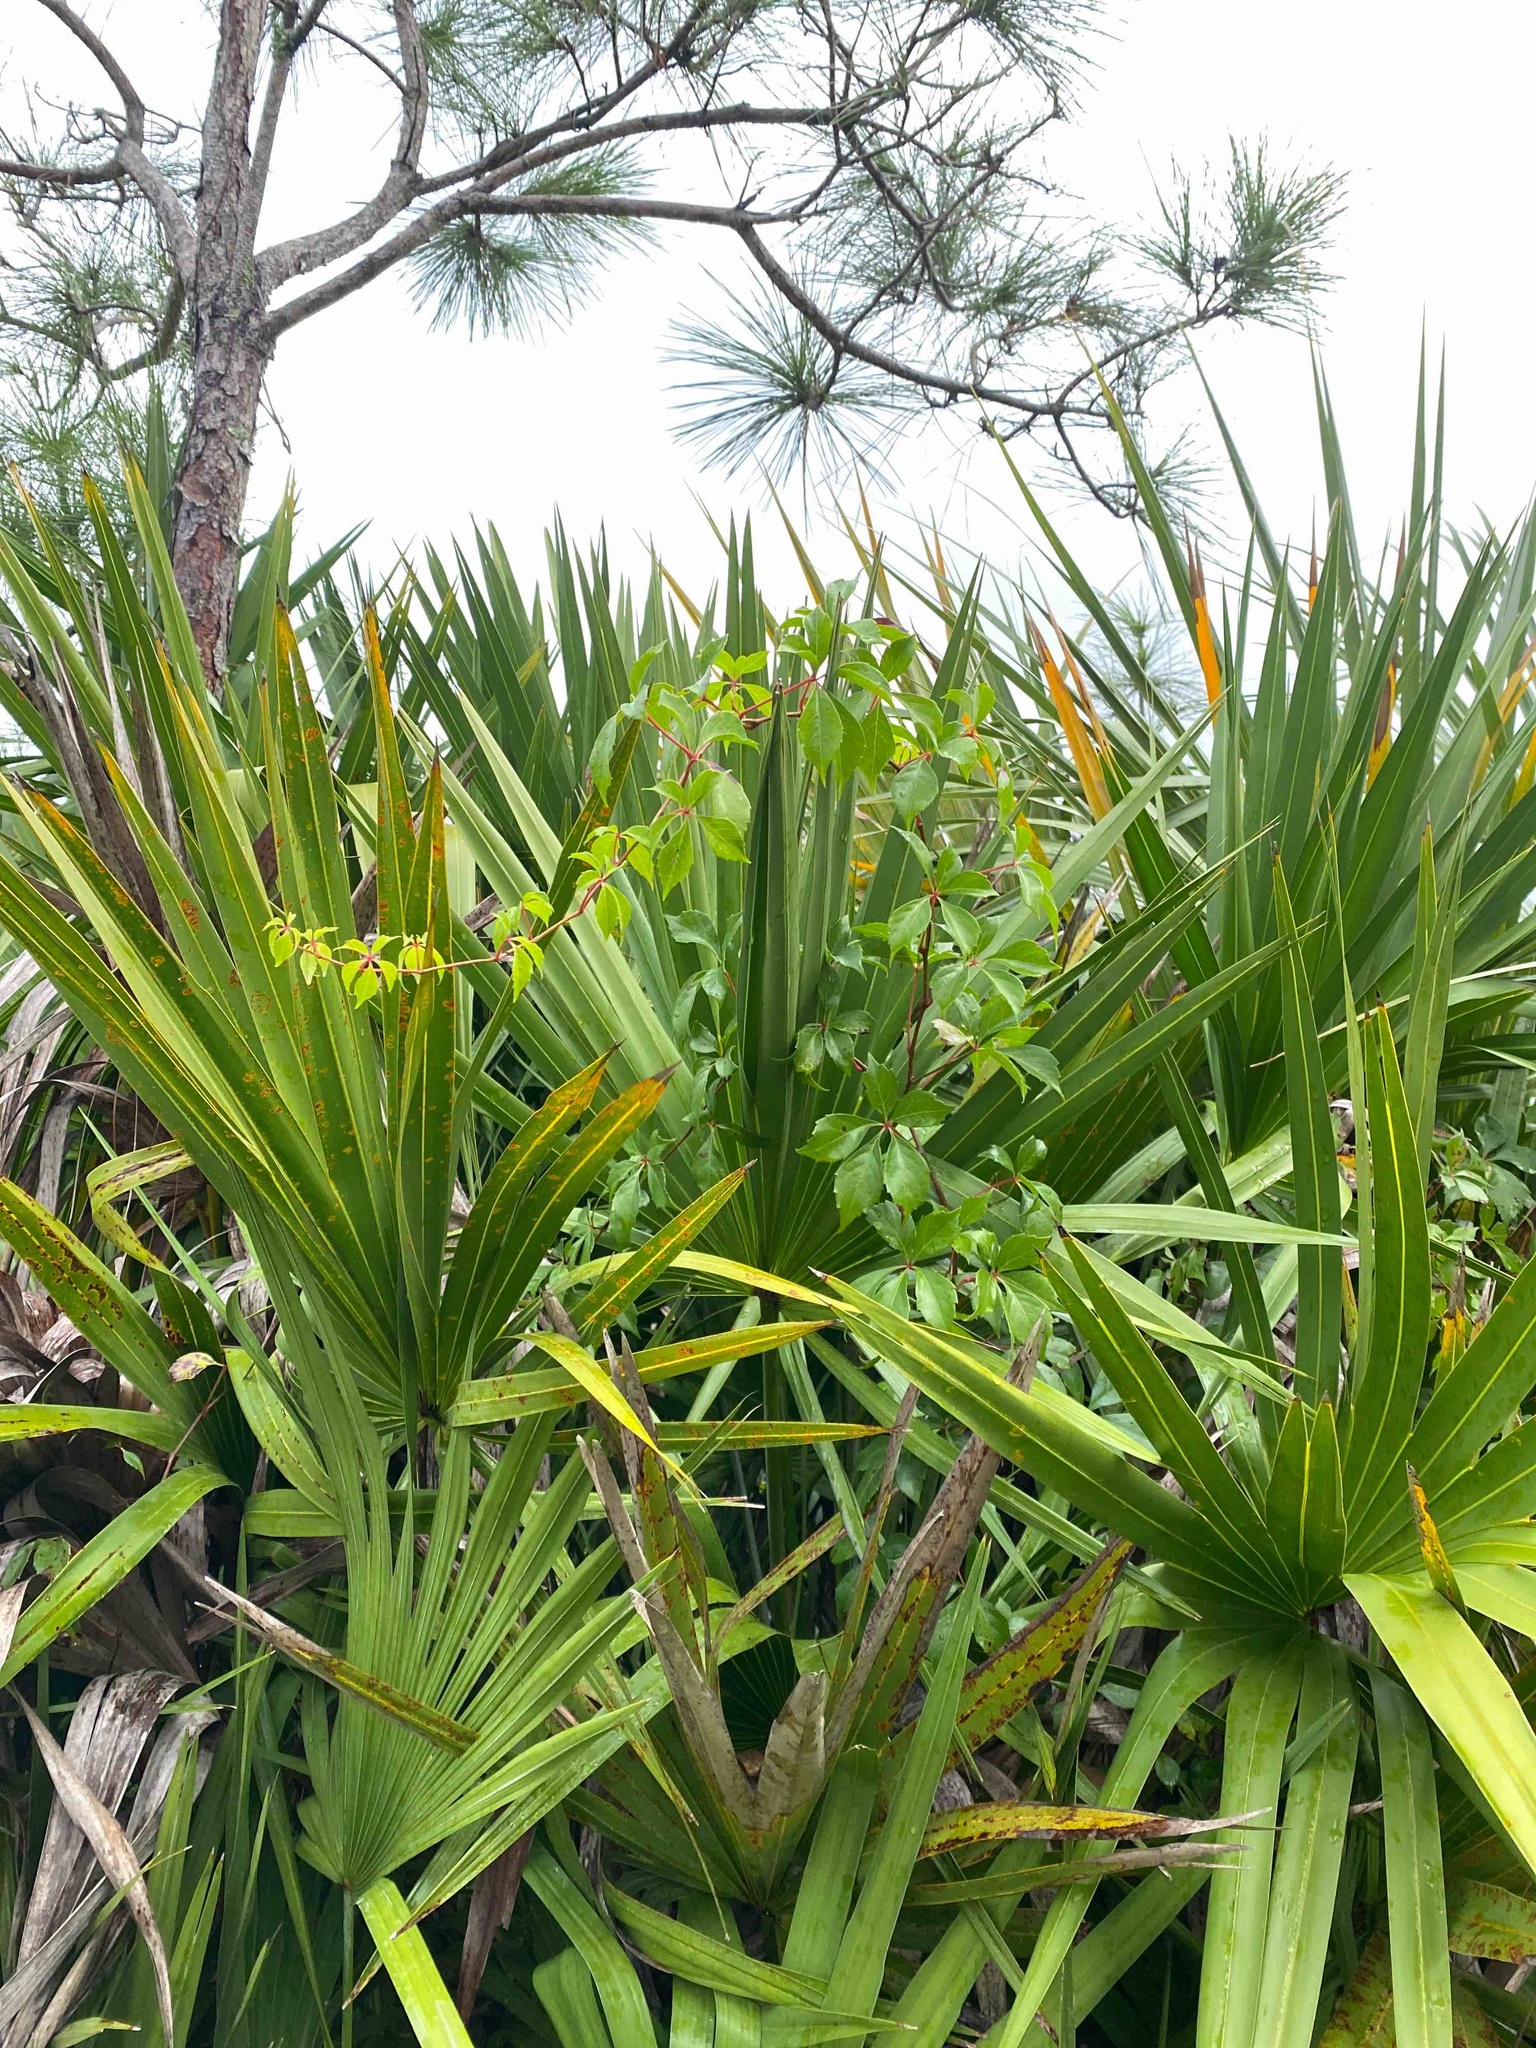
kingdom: Plantae
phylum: Tracheophyta
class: Magnoliopsida
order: Vitales
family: Vitaceae
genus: Parthenocissus
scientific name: Parthenocissus quinquefolia
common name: Virginia-creeper
